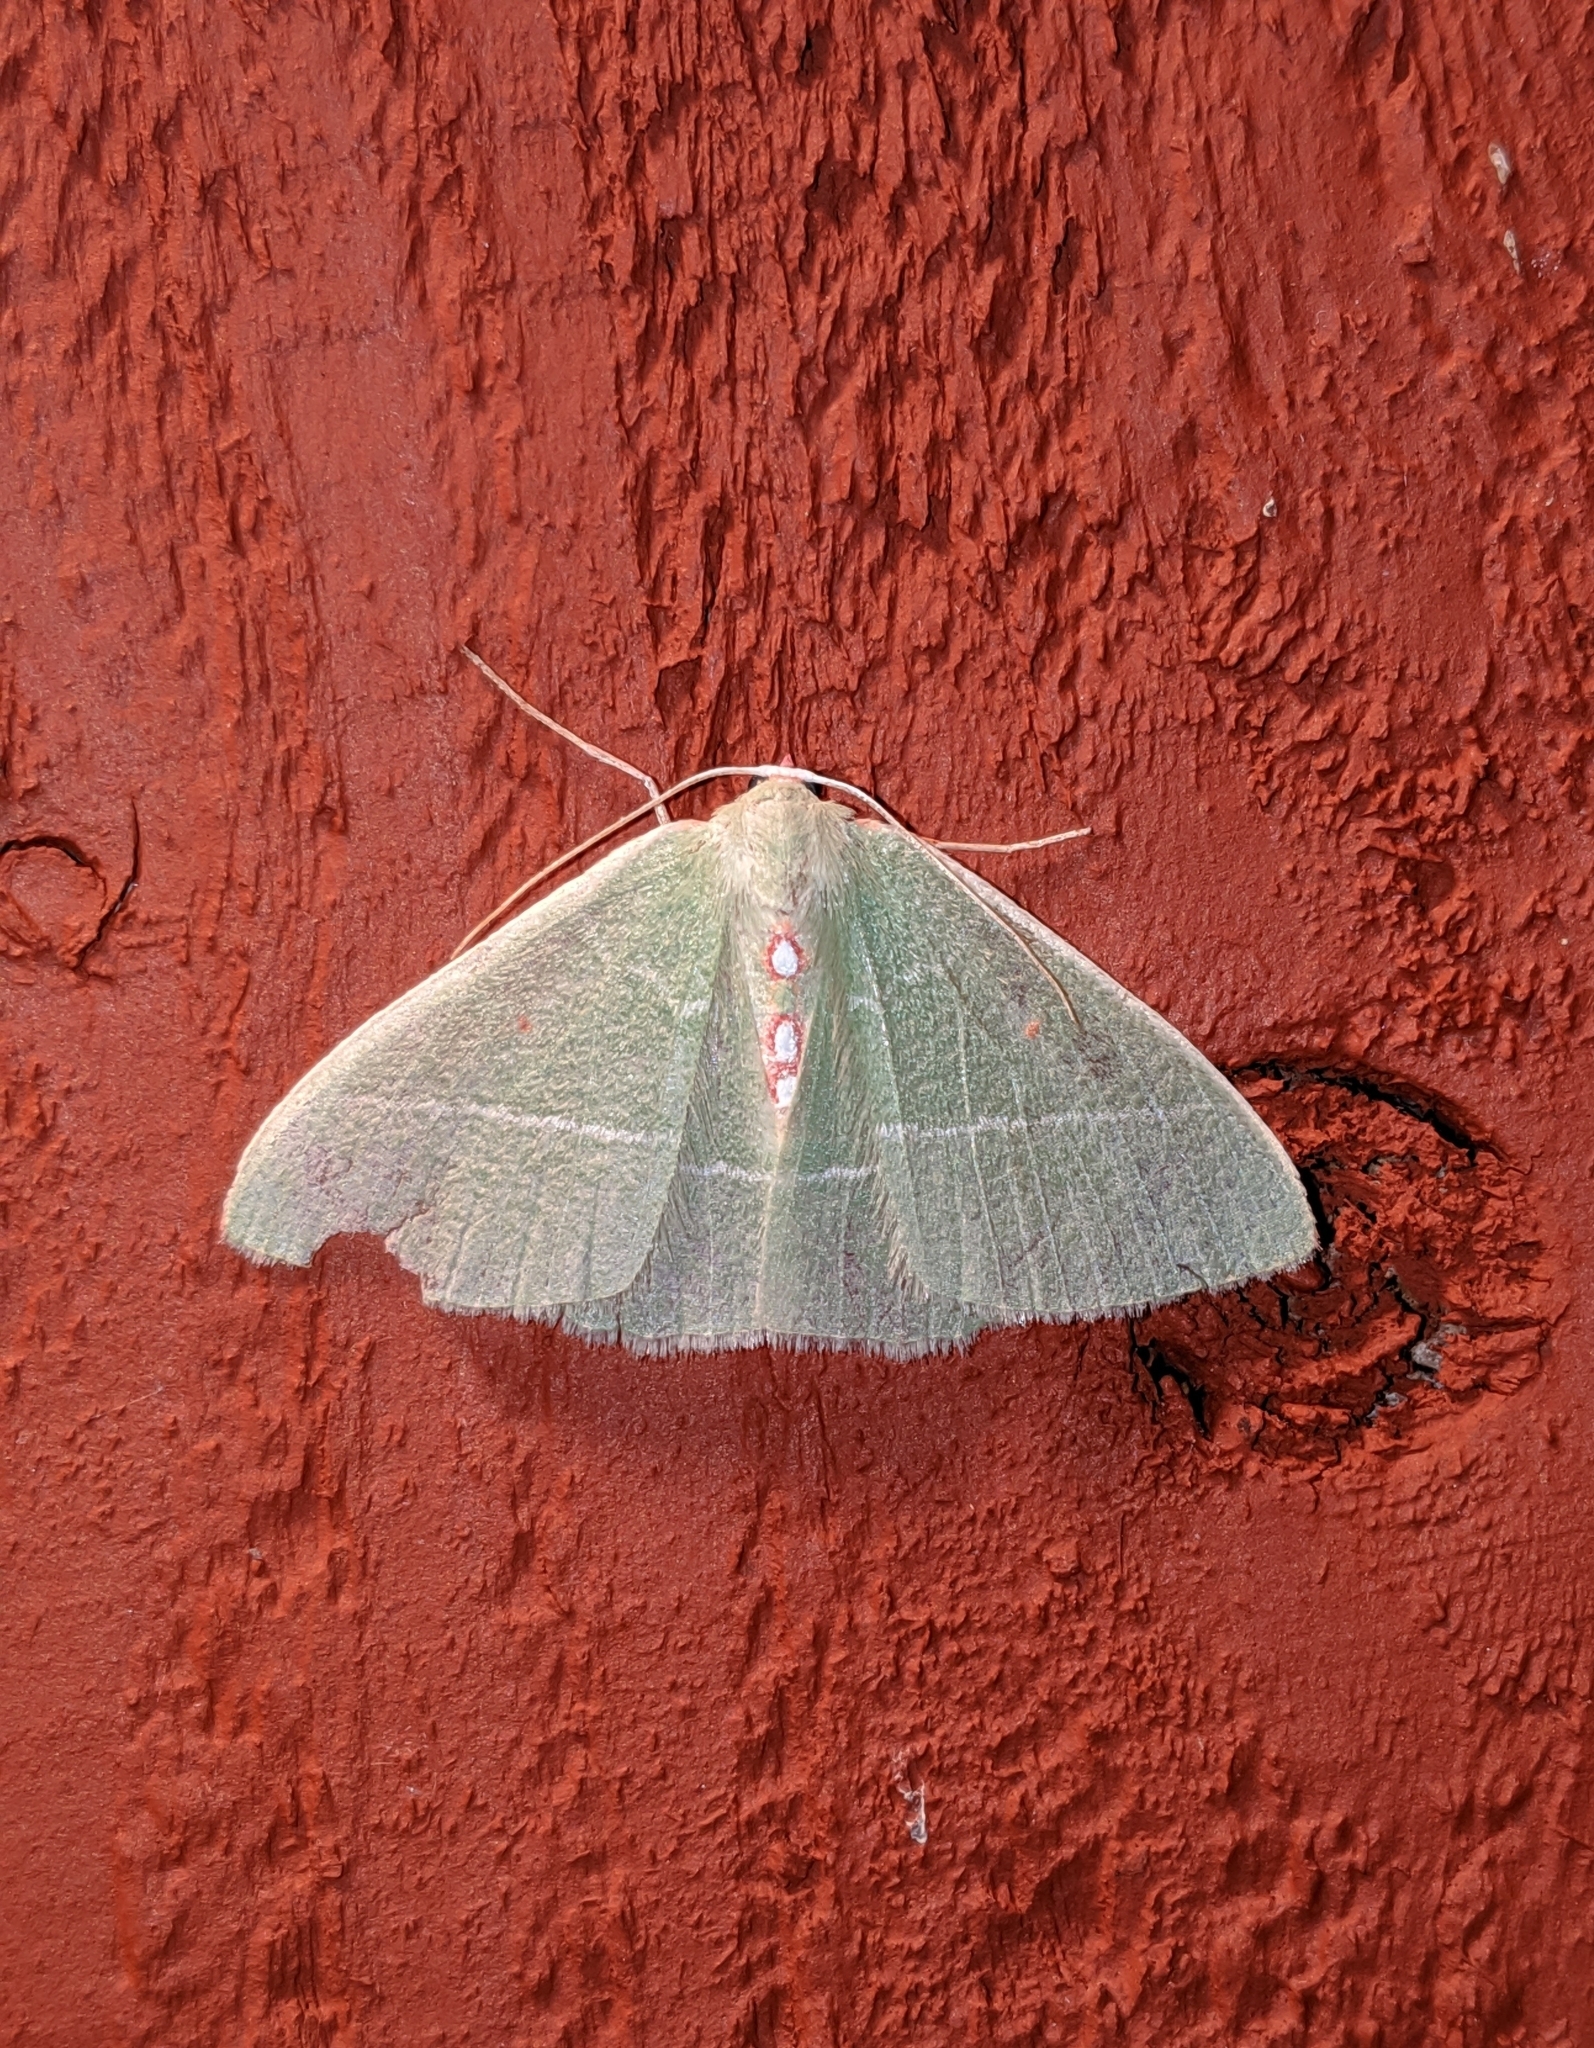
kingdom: Animalia
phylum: Arthropoda
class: Insecta
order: Lepidoptera
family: Geometridae
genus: Nemoria
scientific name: Nemoria darwiniata
